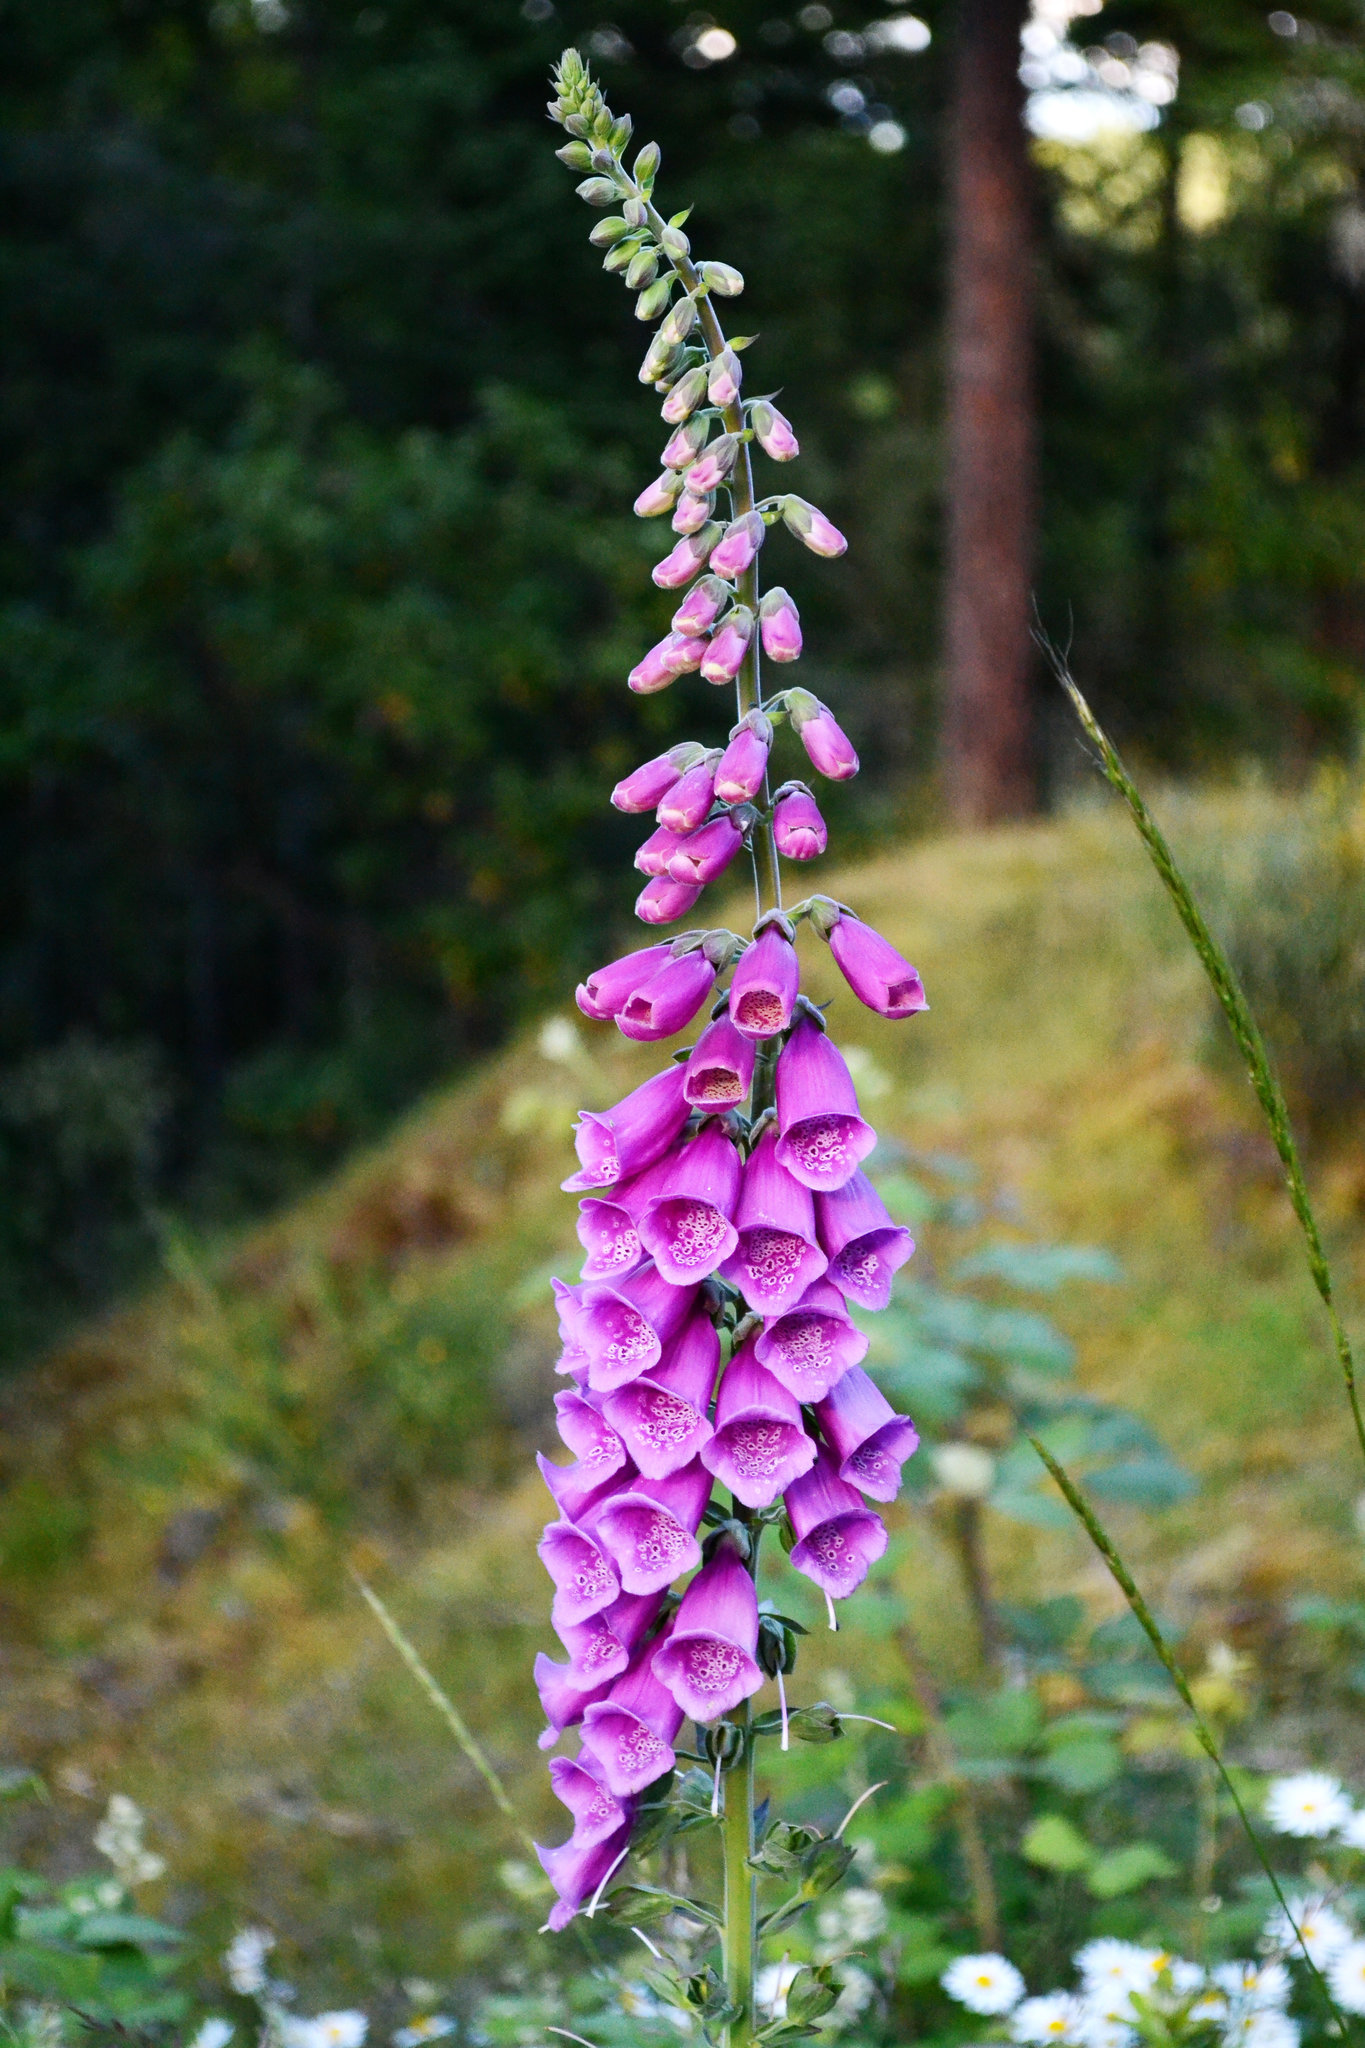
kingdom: Plantae
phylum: Tracheophyta
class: Magnoliopsida
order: Lamiales
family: Plantaginaceae
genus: Digitalis
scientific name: Digitalis purpurea
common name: Foxglove
